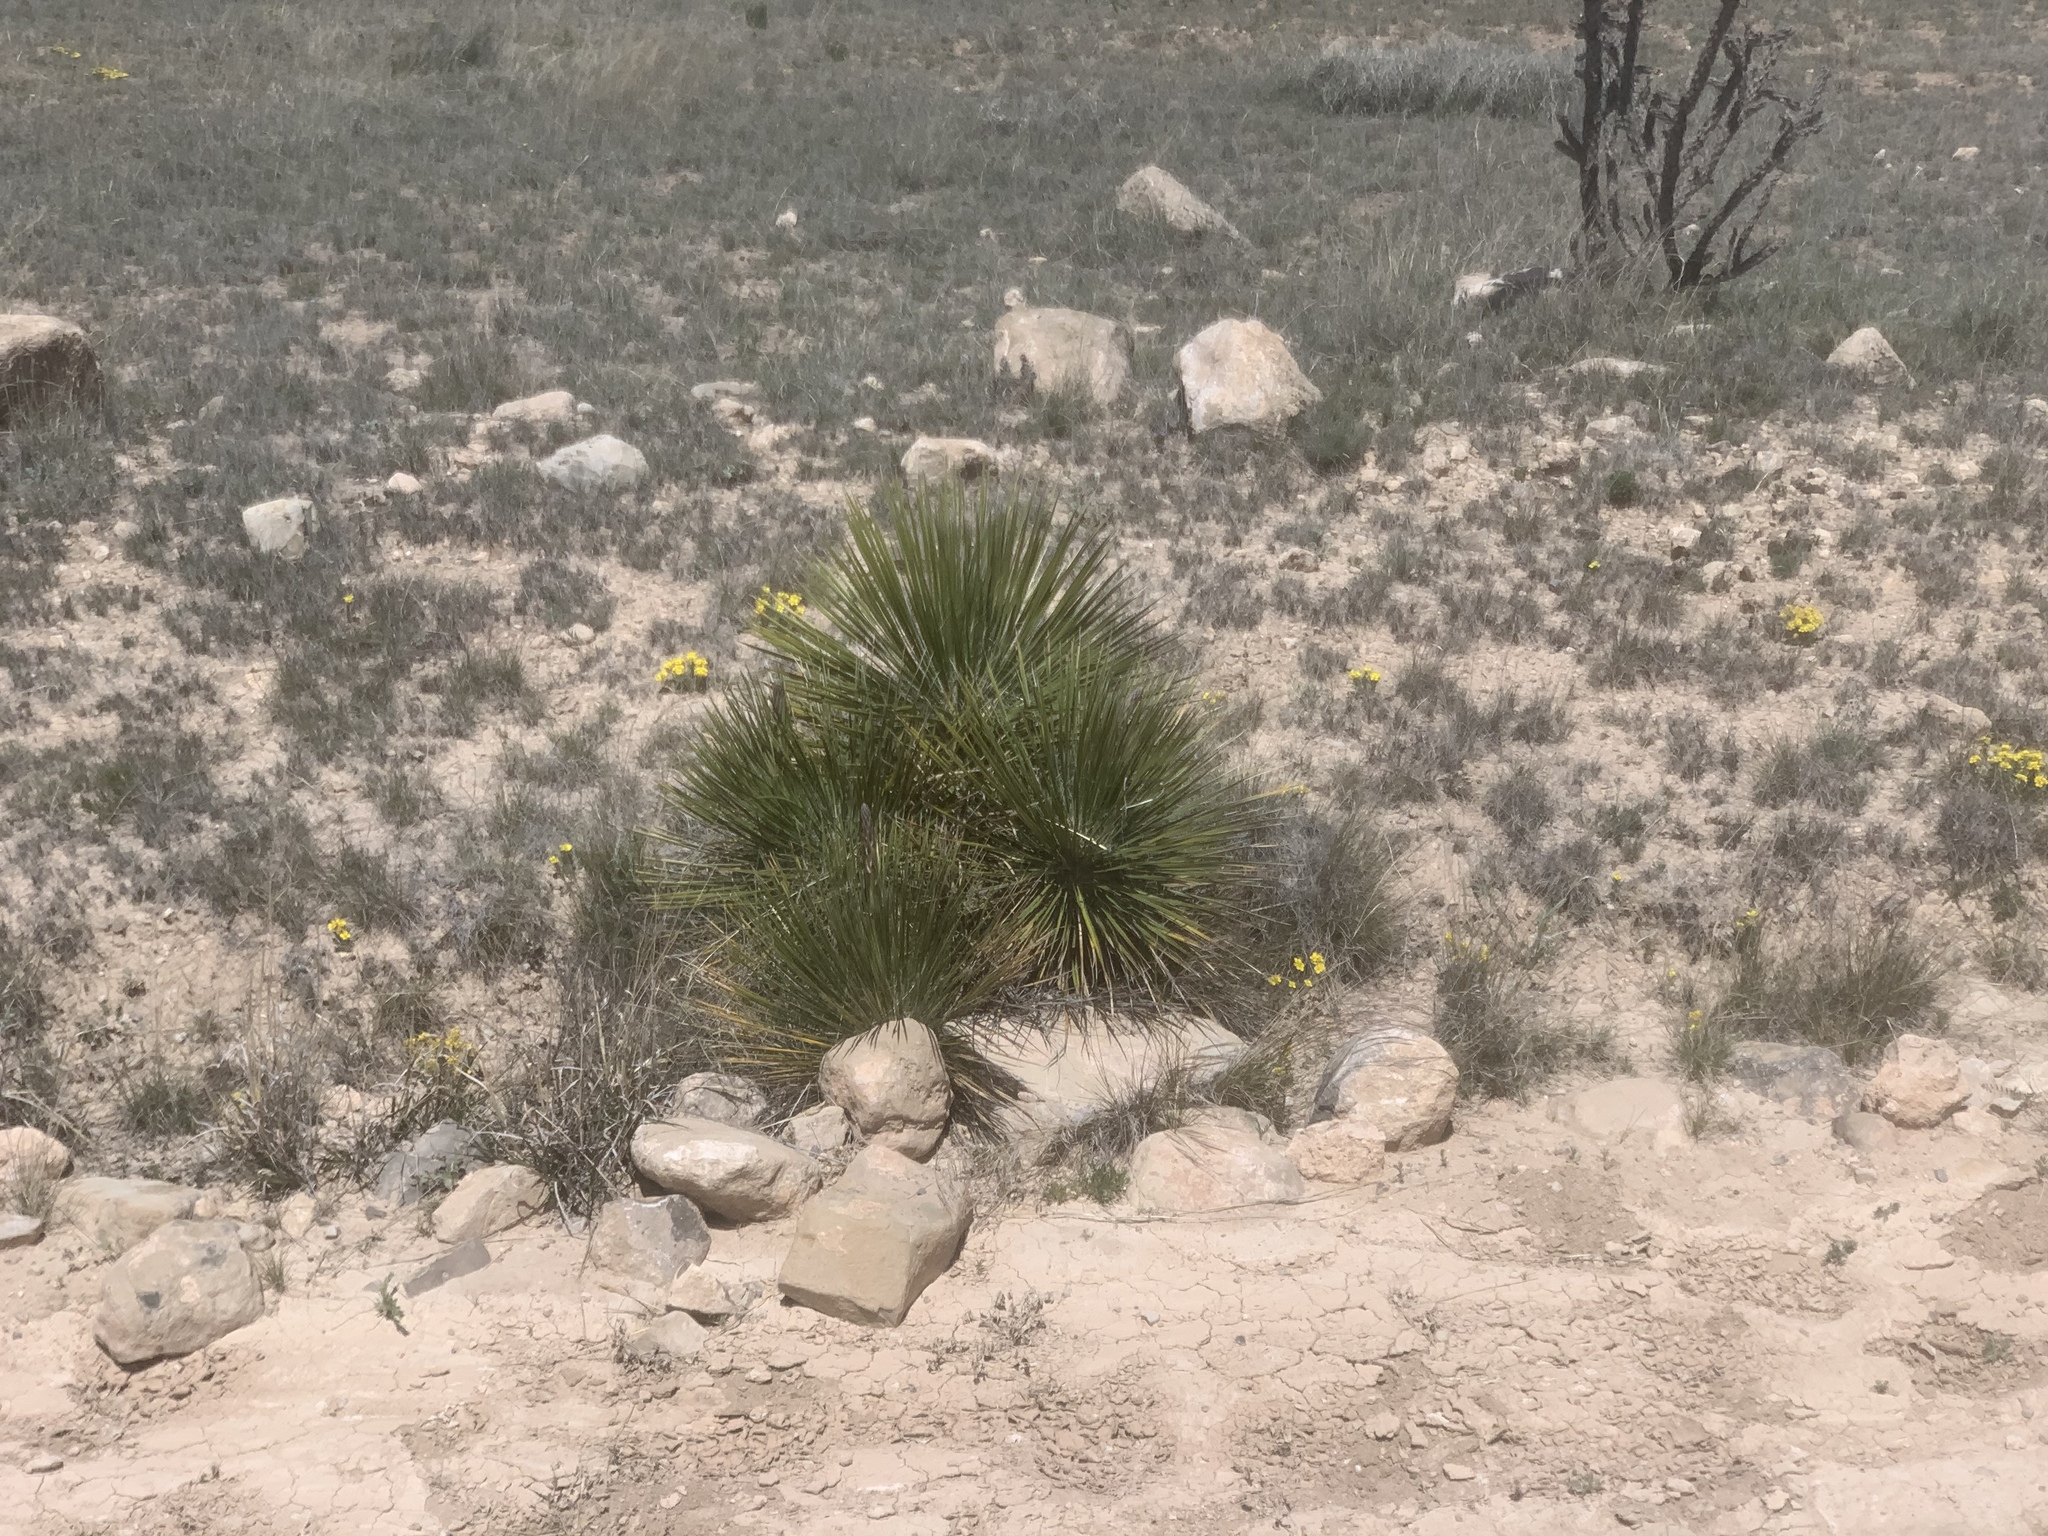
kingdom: Plantae
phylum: Tracheophyta
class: Liliopsida
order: Asparagales
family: Asparagaceae
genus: Yucca
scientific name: Yucca elata
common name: Palmella
